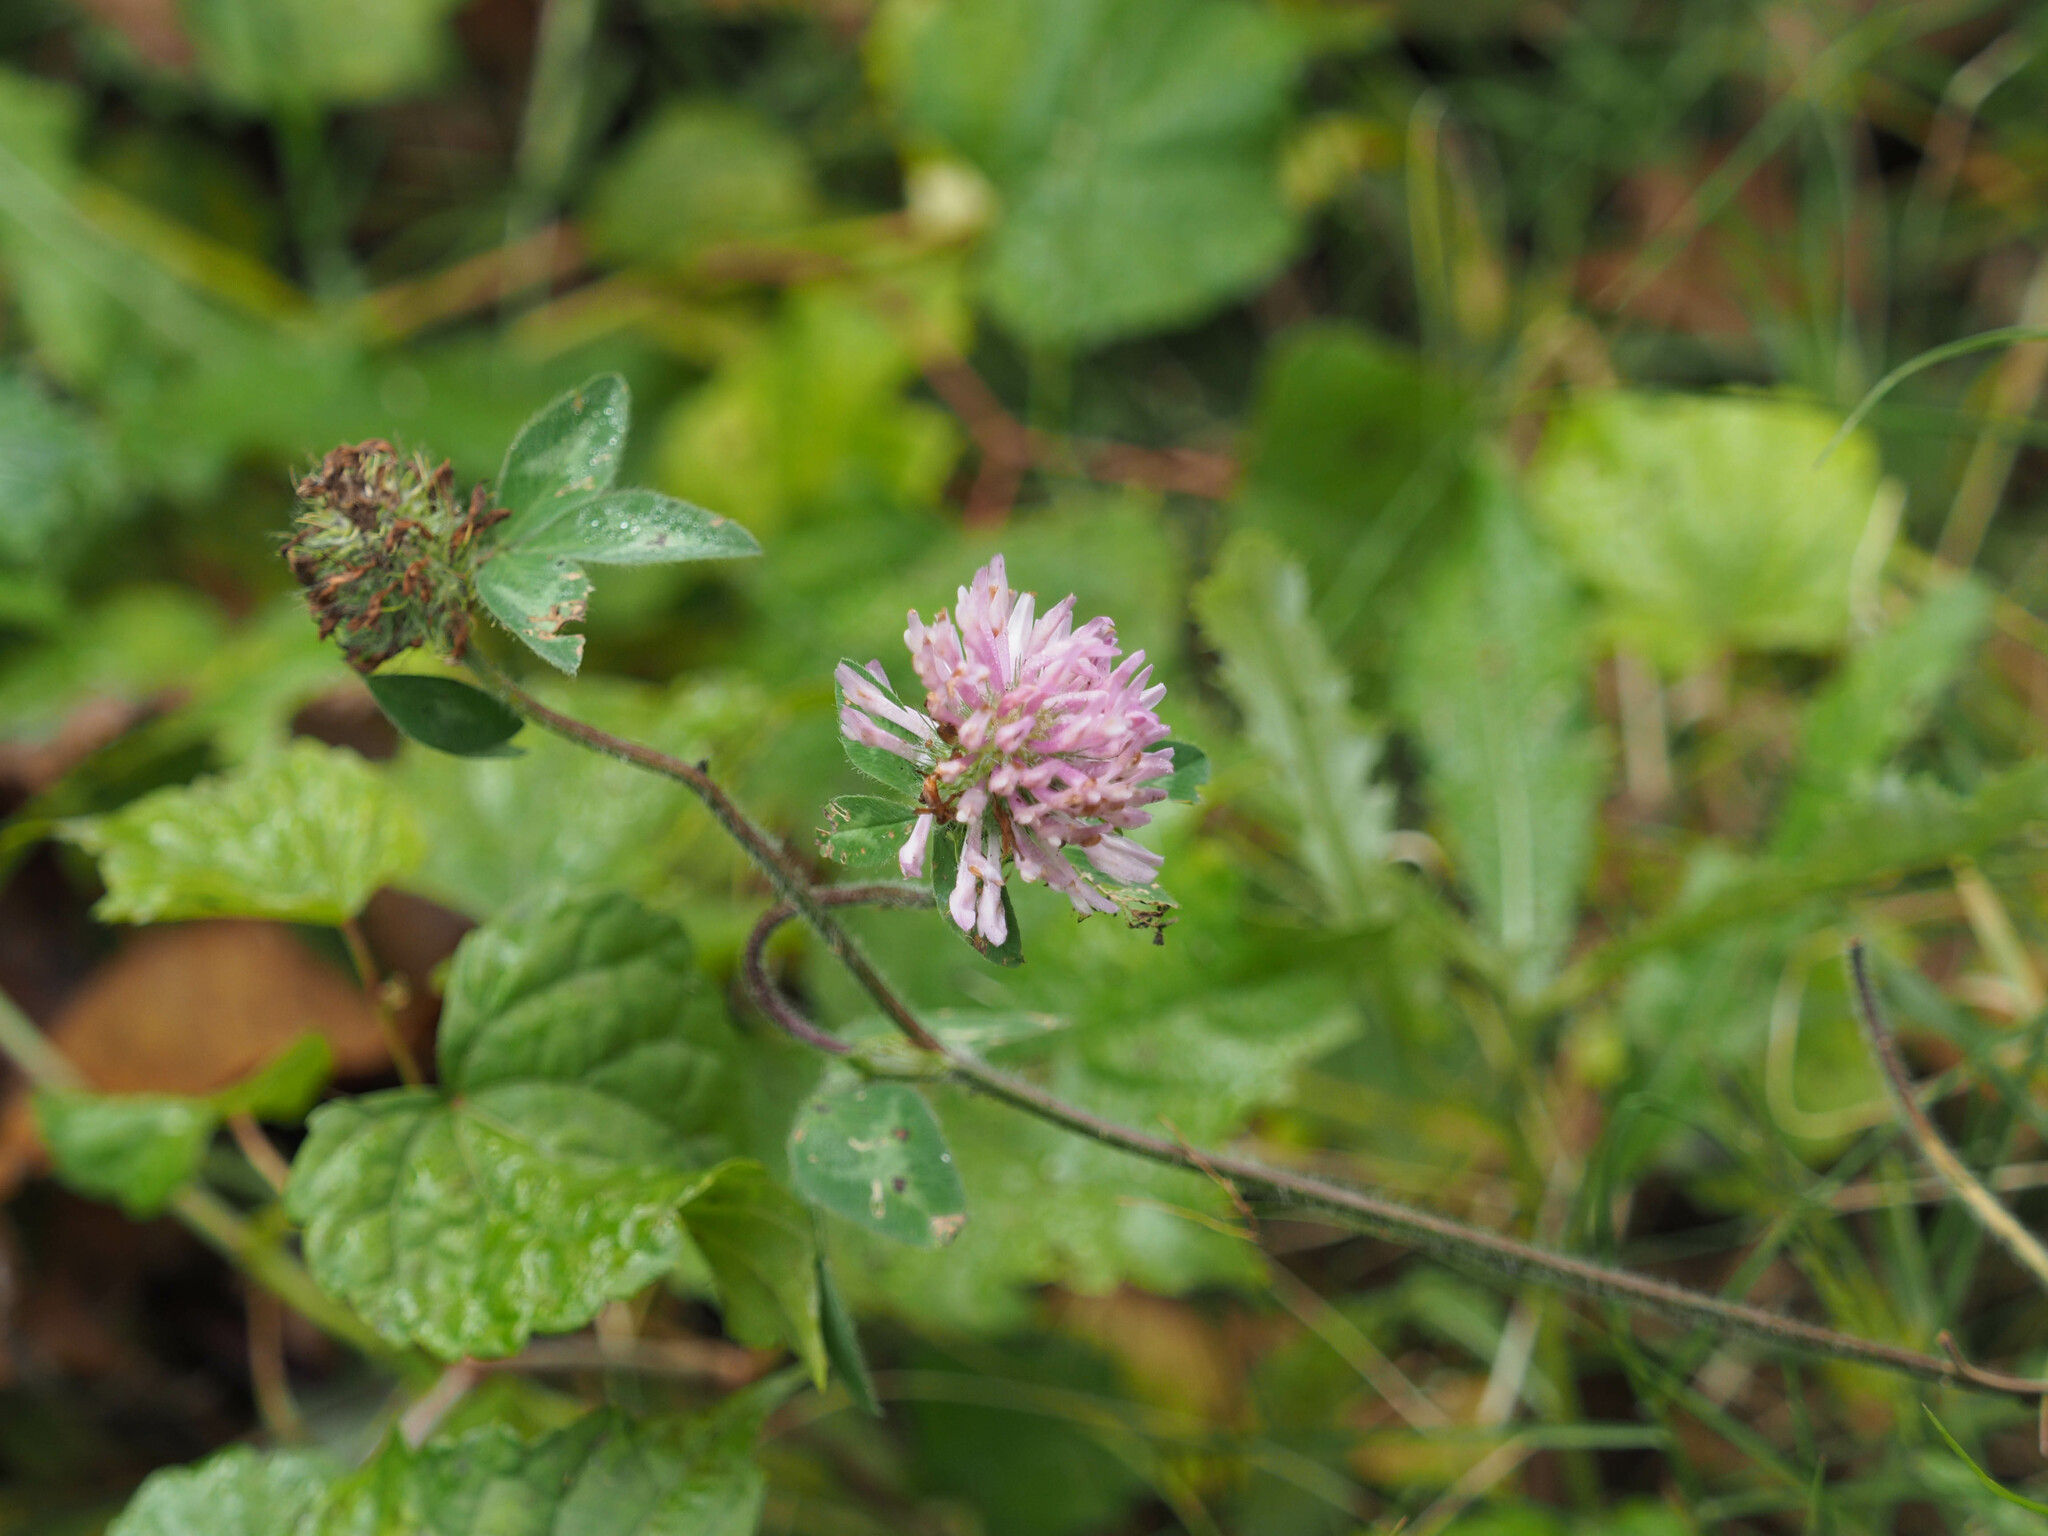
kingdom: Plantae
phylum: Tracheophyta
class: Magnoliopsida
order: Fabales
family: Fabaceae
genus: Trifolium
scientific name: Trifolium pratense
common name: Red clover
